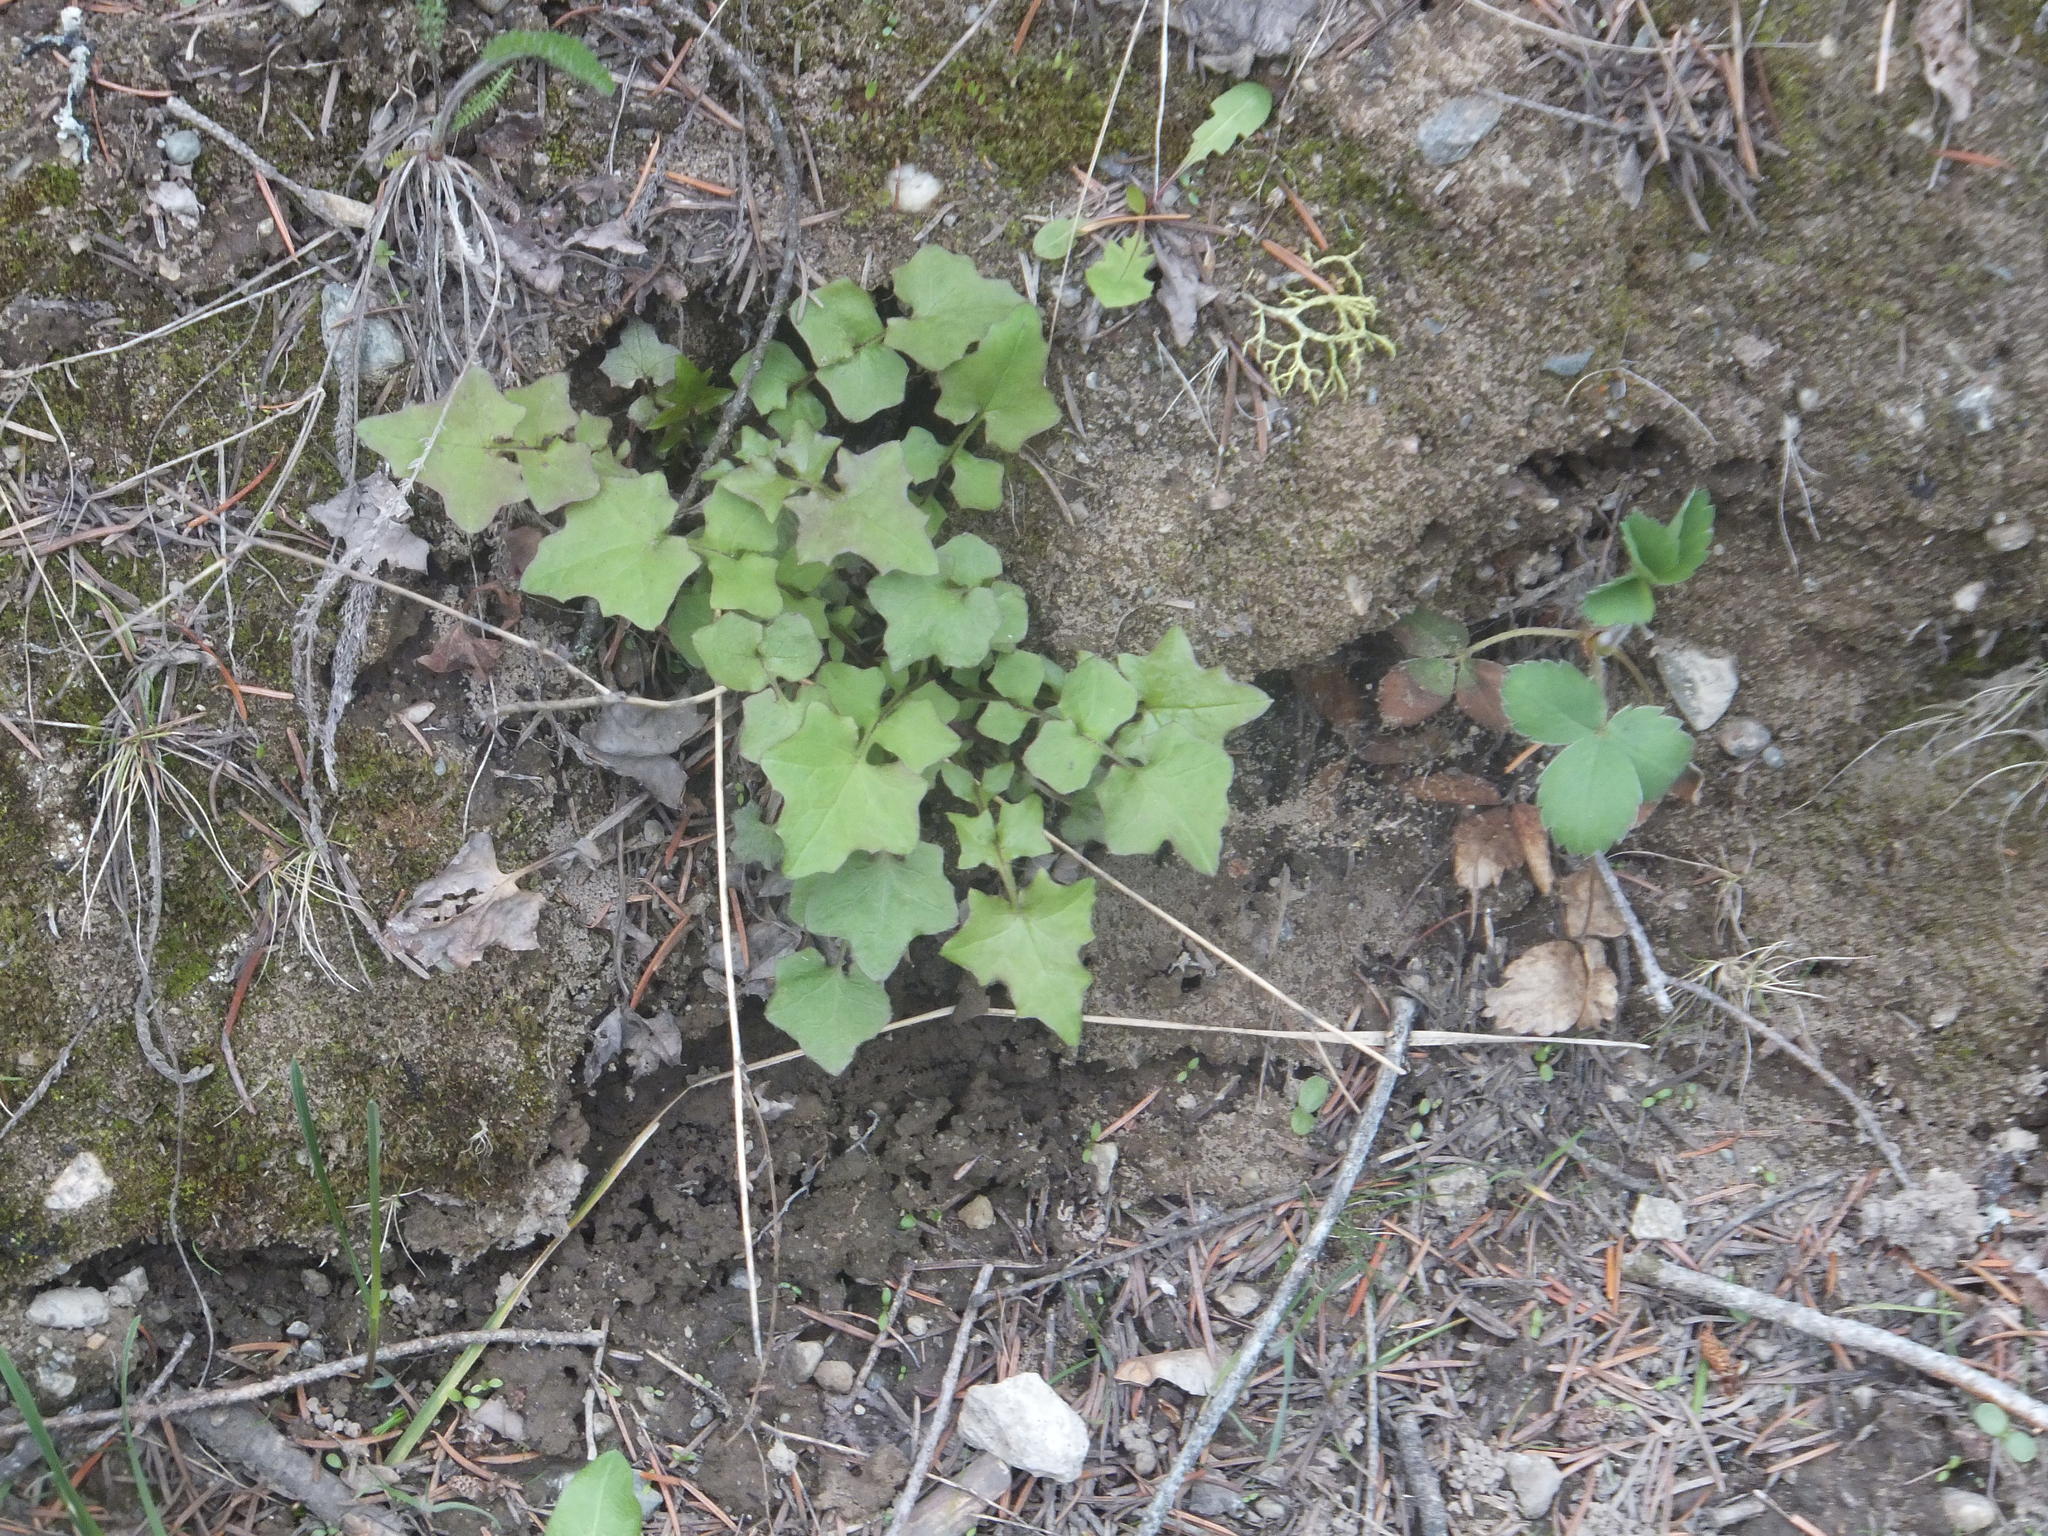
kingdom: Plantae
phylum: Tracheophyta
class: Magnoliopsida
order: Asterales
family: Asteraceae
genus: Mycelis
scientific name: Mycelis muralis
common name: Wall lettuce
